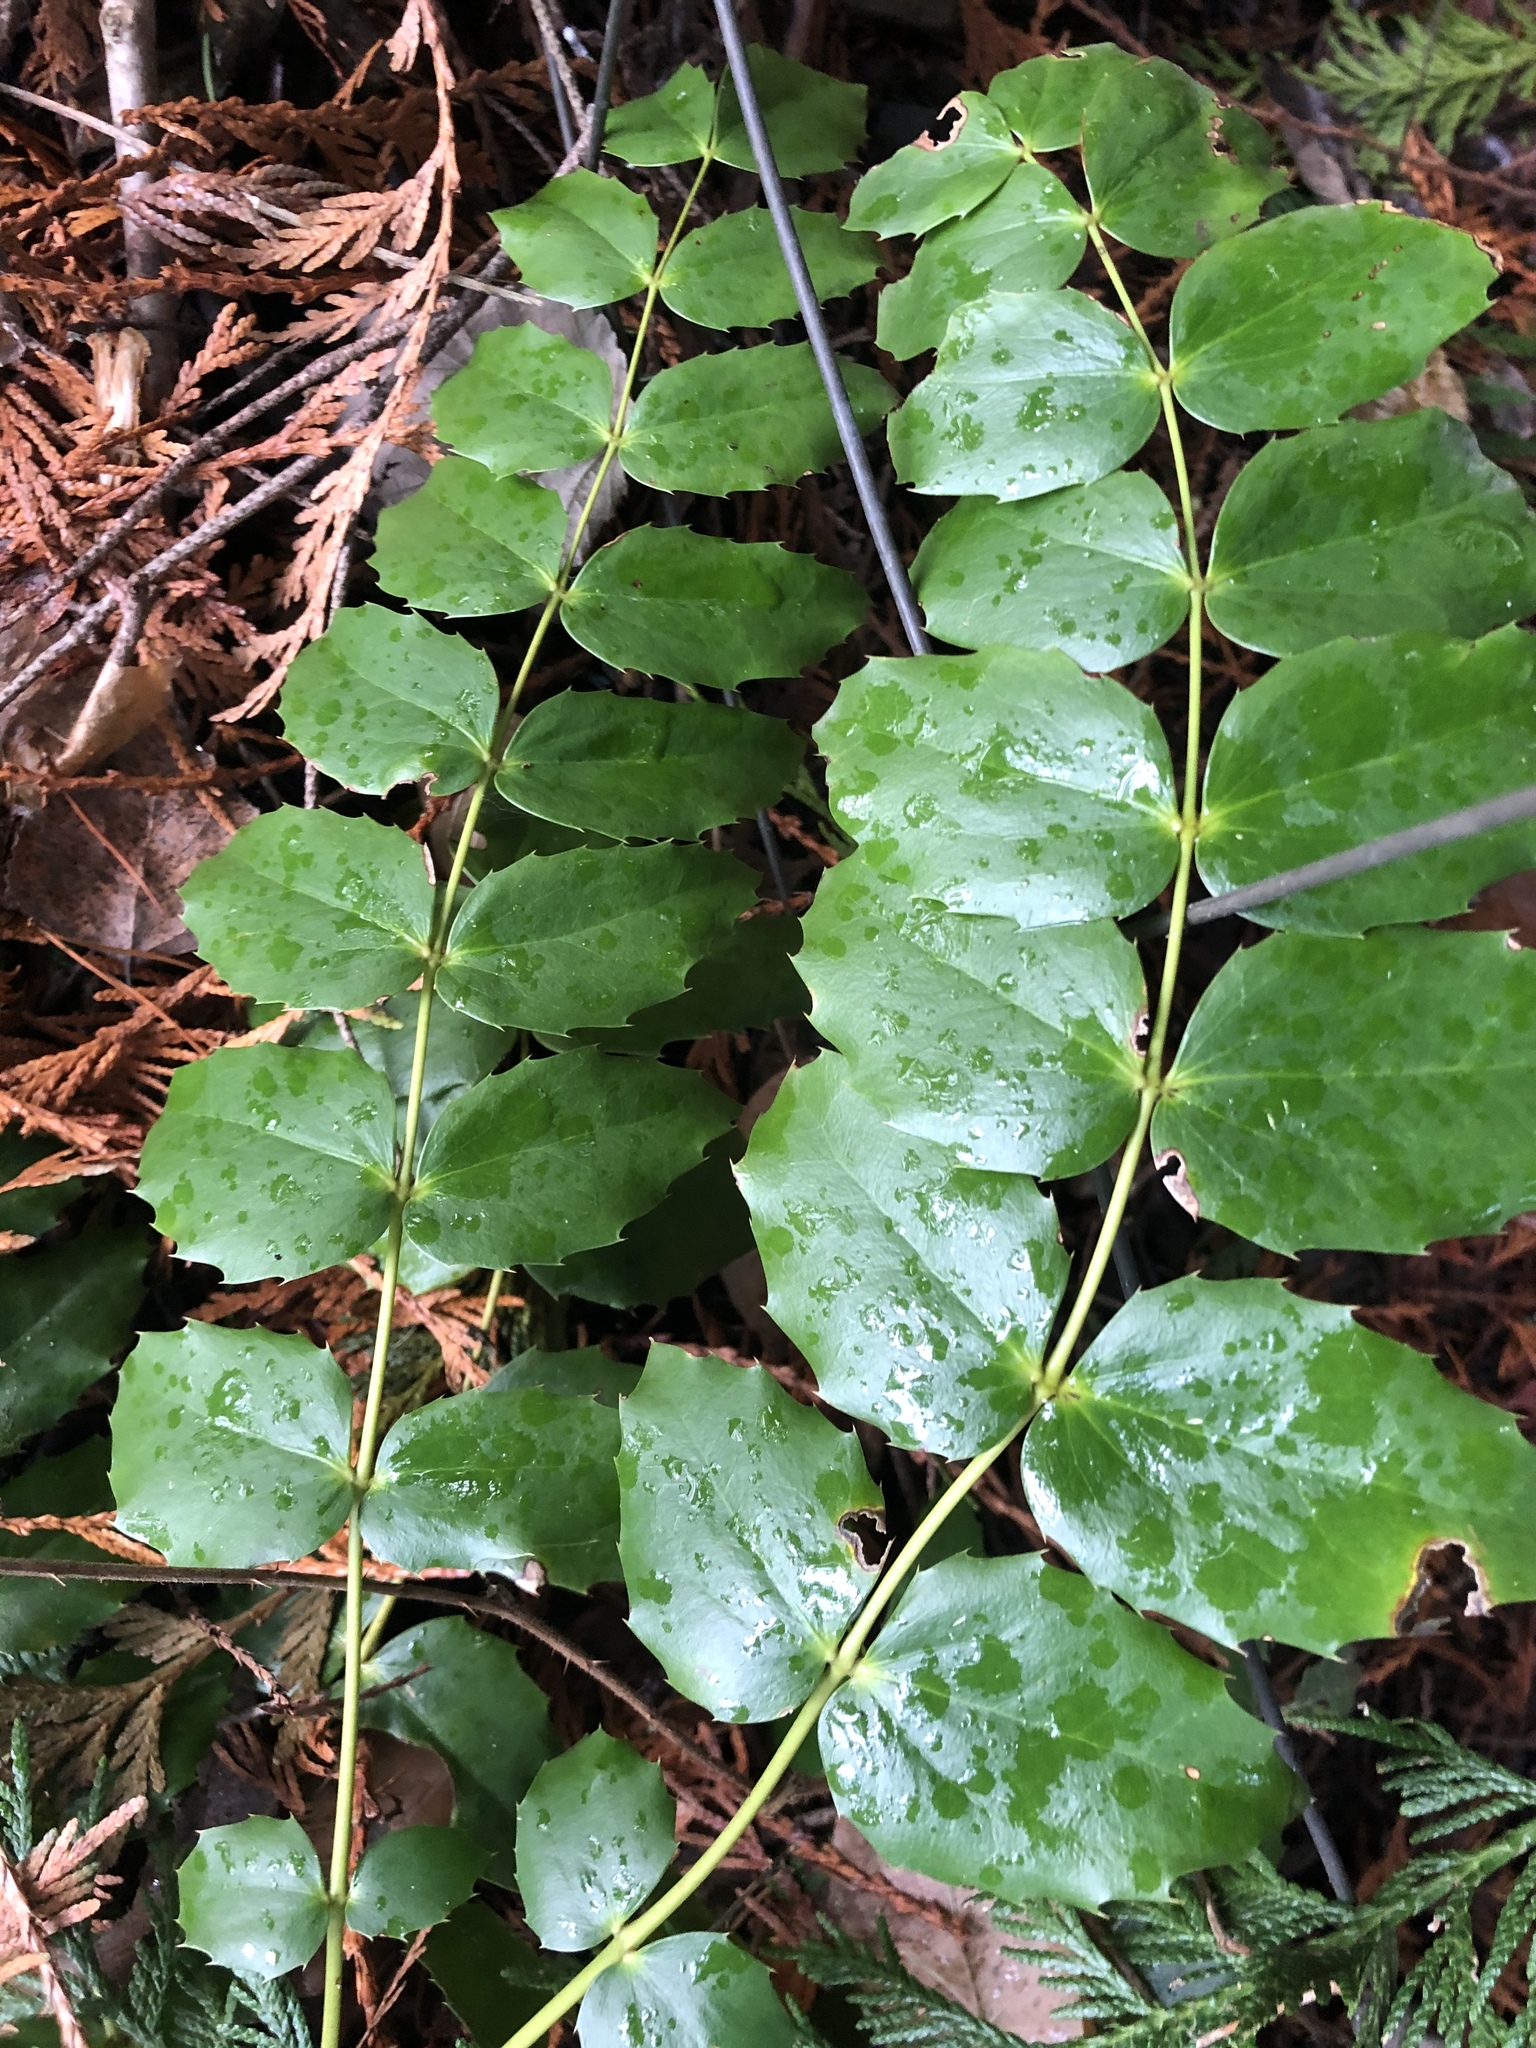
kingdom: Plantae
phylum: Tracheophyta
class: Magnoliopsida
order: Ranunculales
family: Berberidaceae
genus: Mahonia
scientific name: Mahonia nervosa
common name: Cascade oregon-grape
